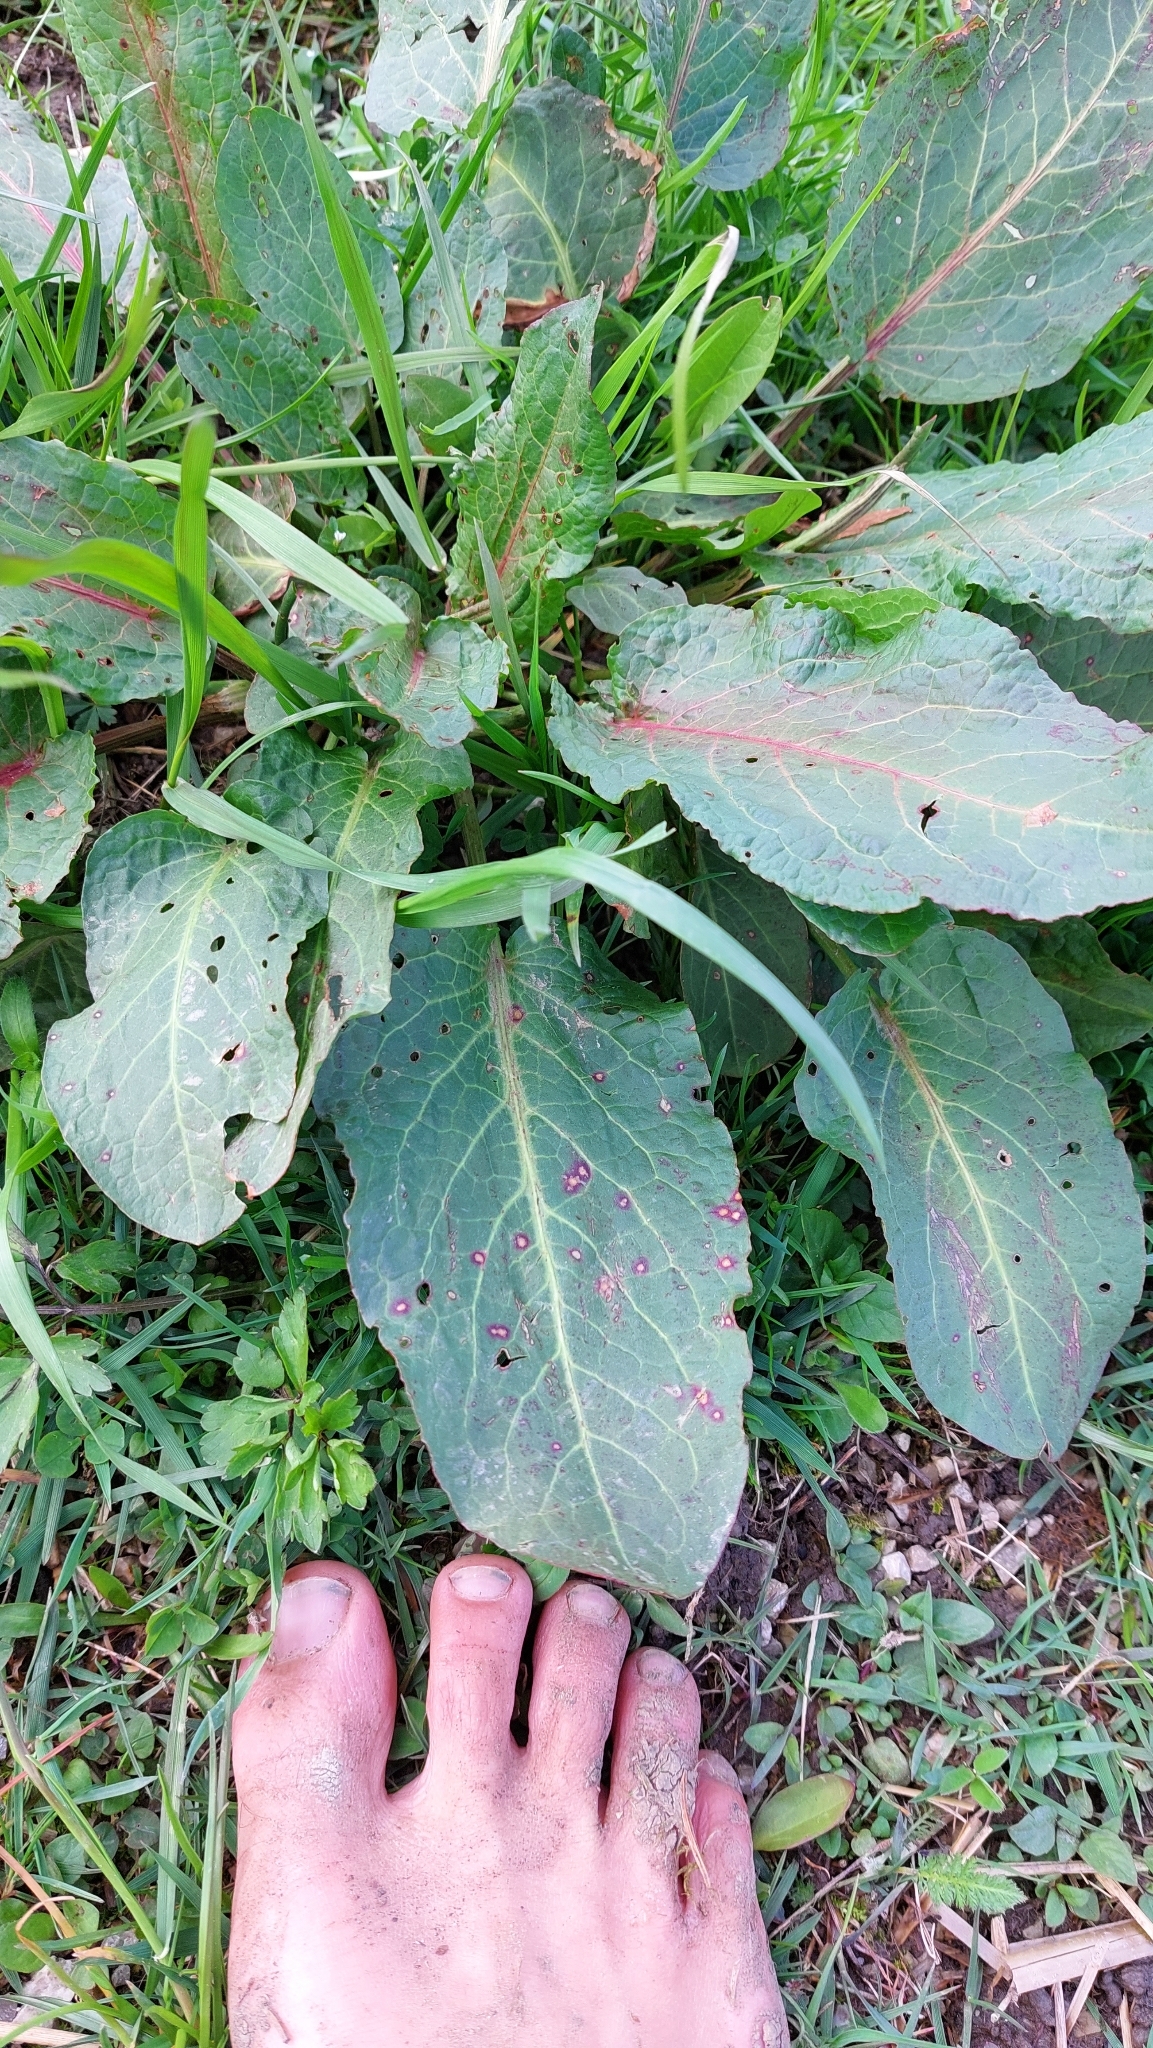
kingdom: Plantae
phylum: Tracheophyta
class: Magnoliopsida
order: Caryophyllales
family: Polygonaceae
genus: Rumex
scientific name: Rumex obtusifolius
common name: Bitter dock
